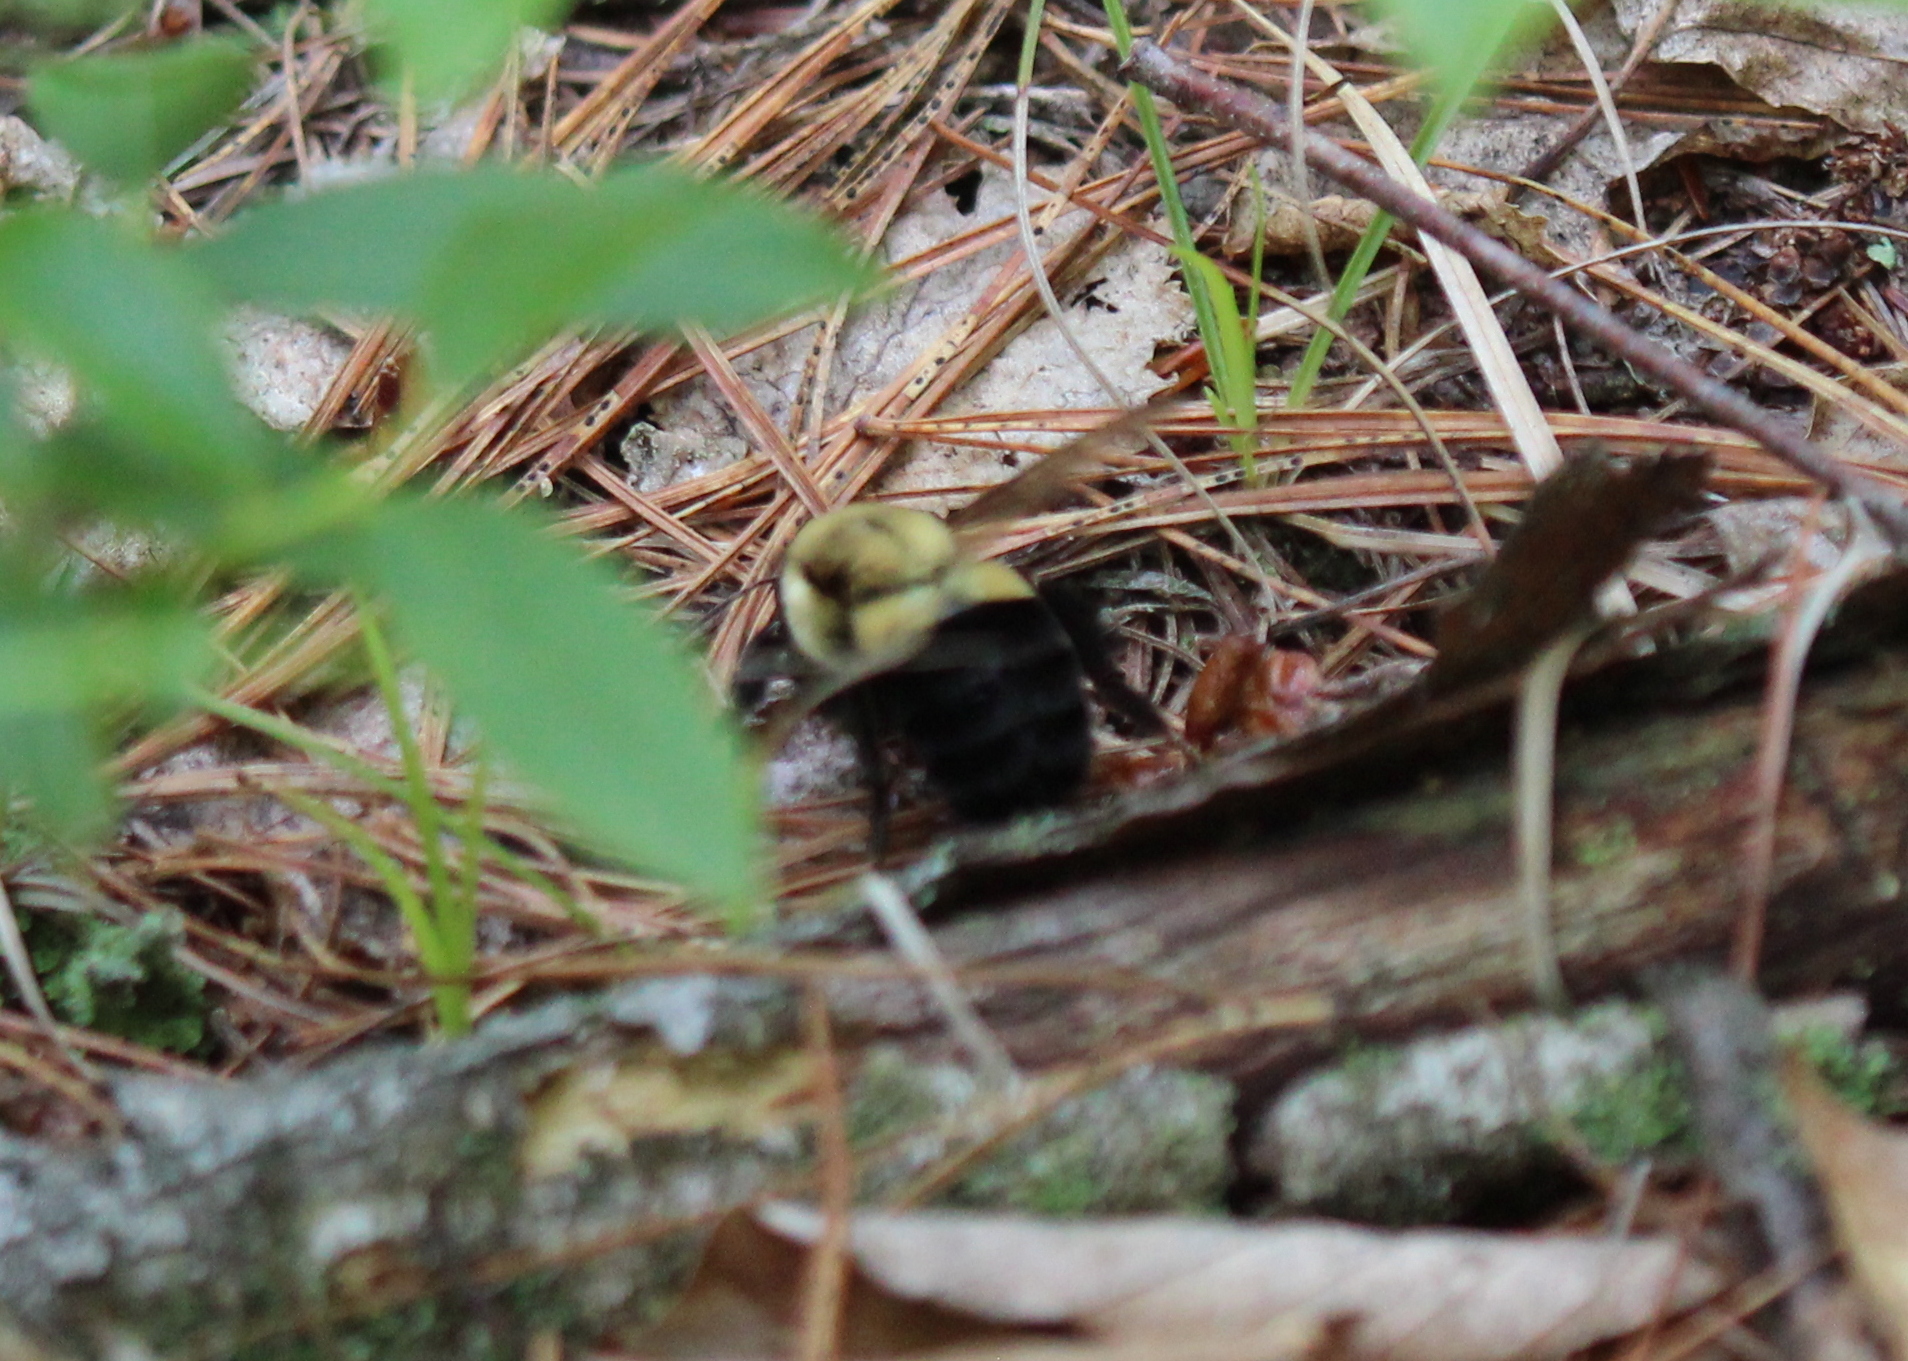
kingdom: Animalia
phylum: Arthropoda
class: Insecta
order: Hymenoptera
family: Apidae
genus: Bombus
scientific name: Bombus impatiens
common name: Common eastern bumble bee
